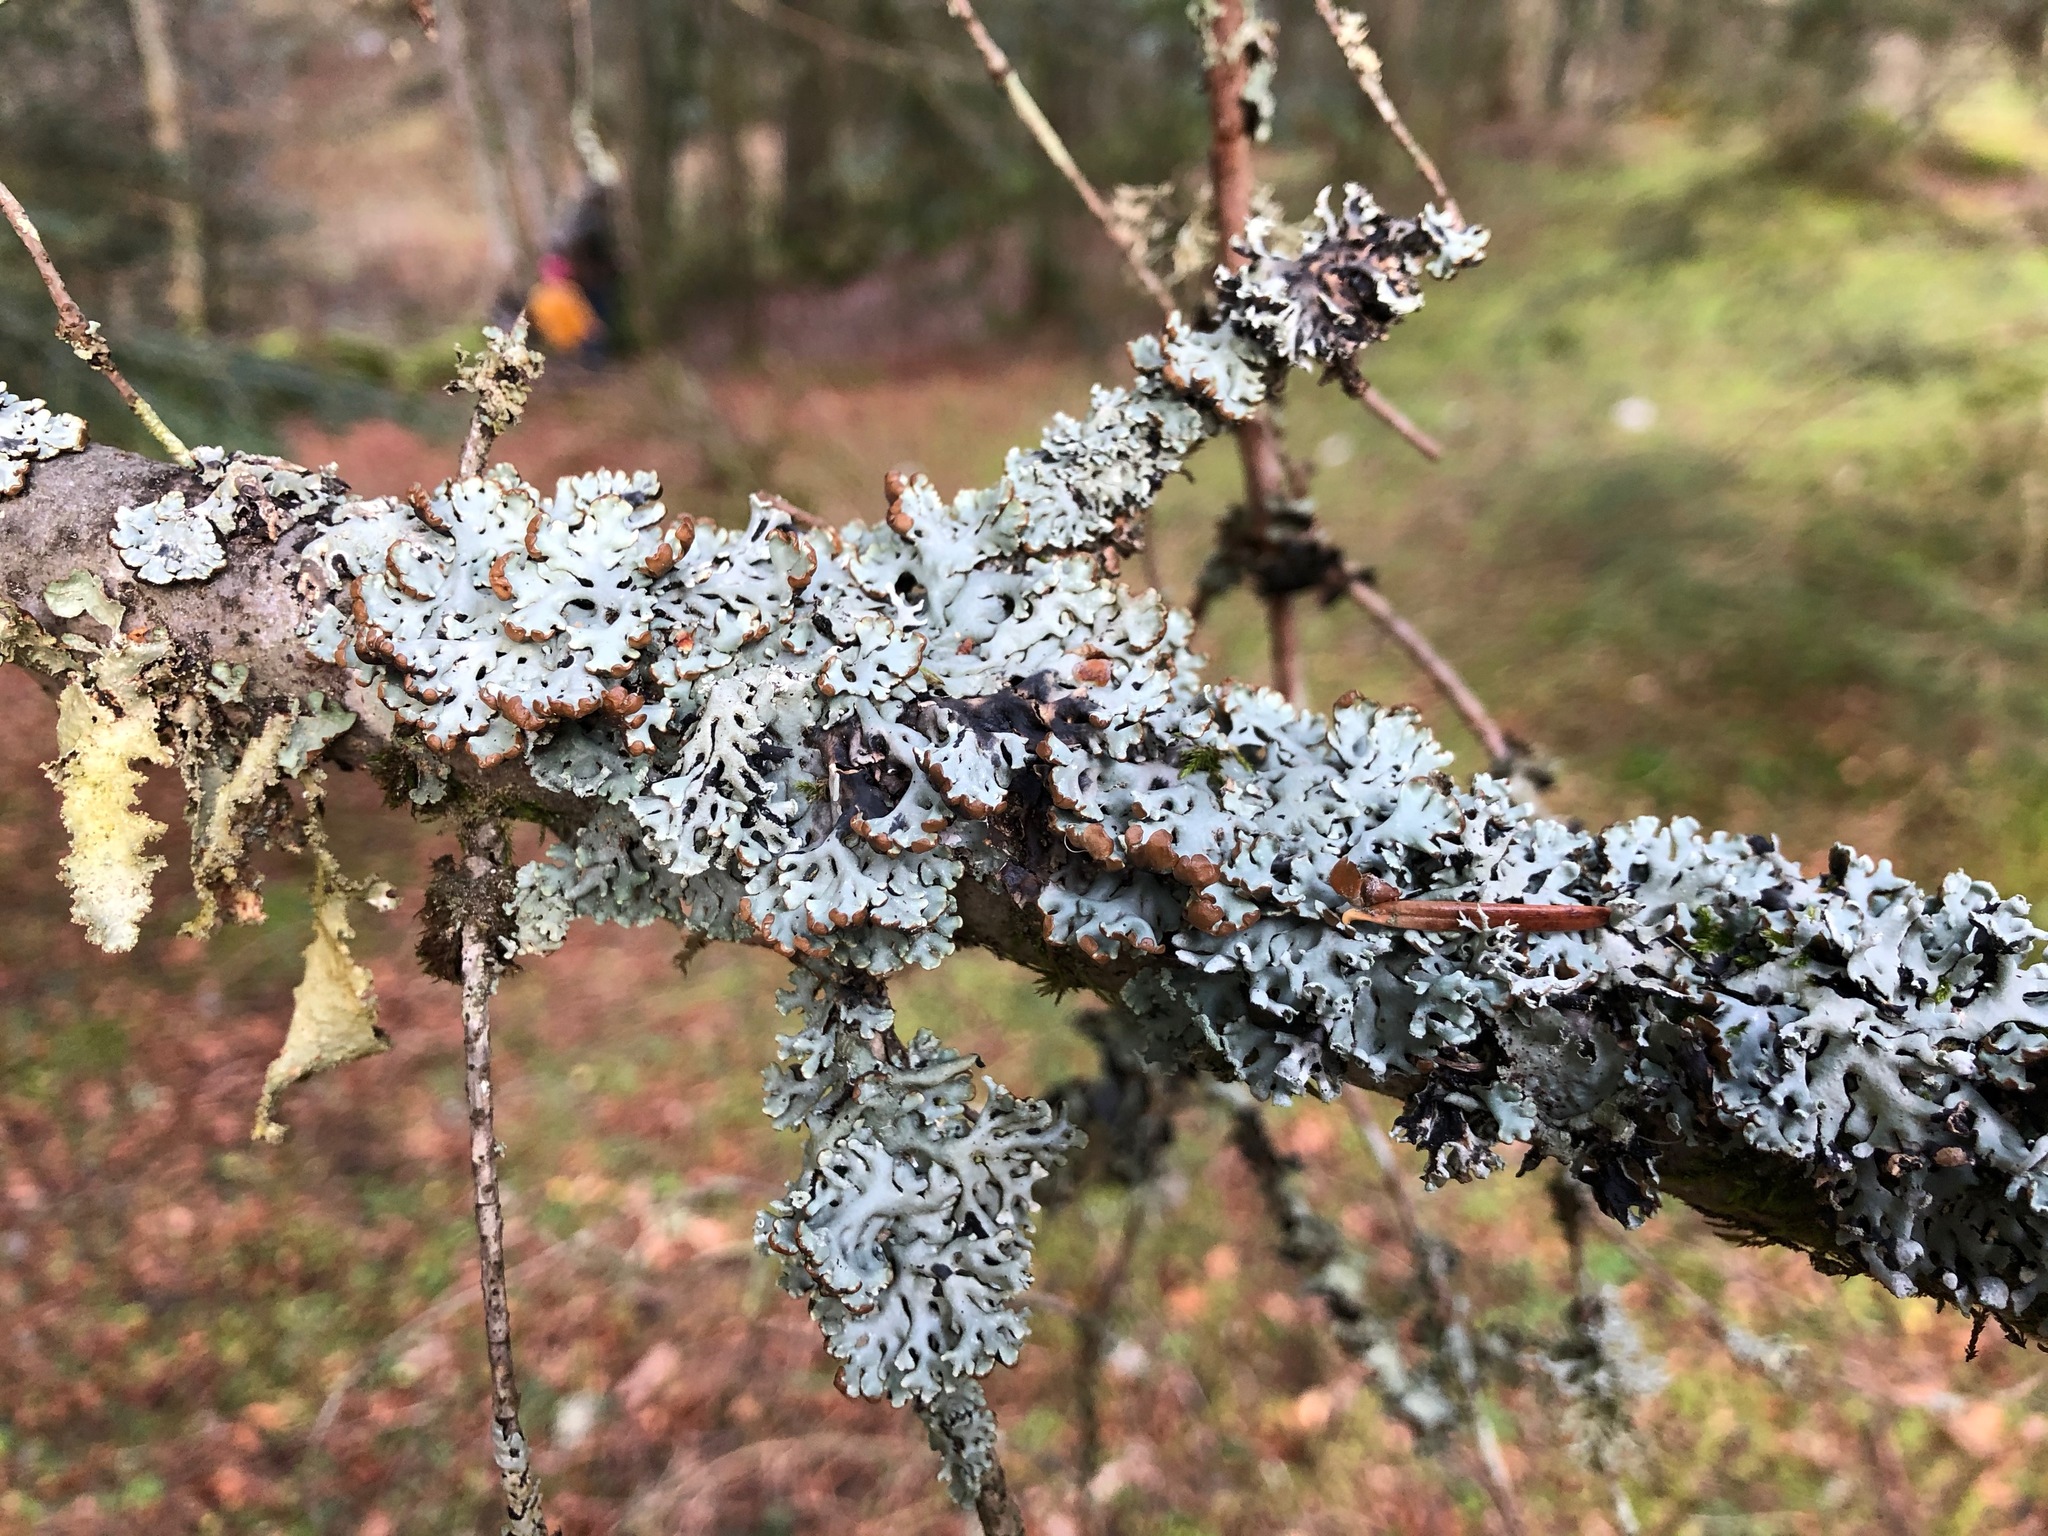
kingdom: Fungi
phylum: Ascomycota
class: Lecanoromycetes
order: Lecanorales
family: Parmeliaceae
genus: Hypogymnia
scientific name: Hypogymnia physodes
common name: Dark crottle
